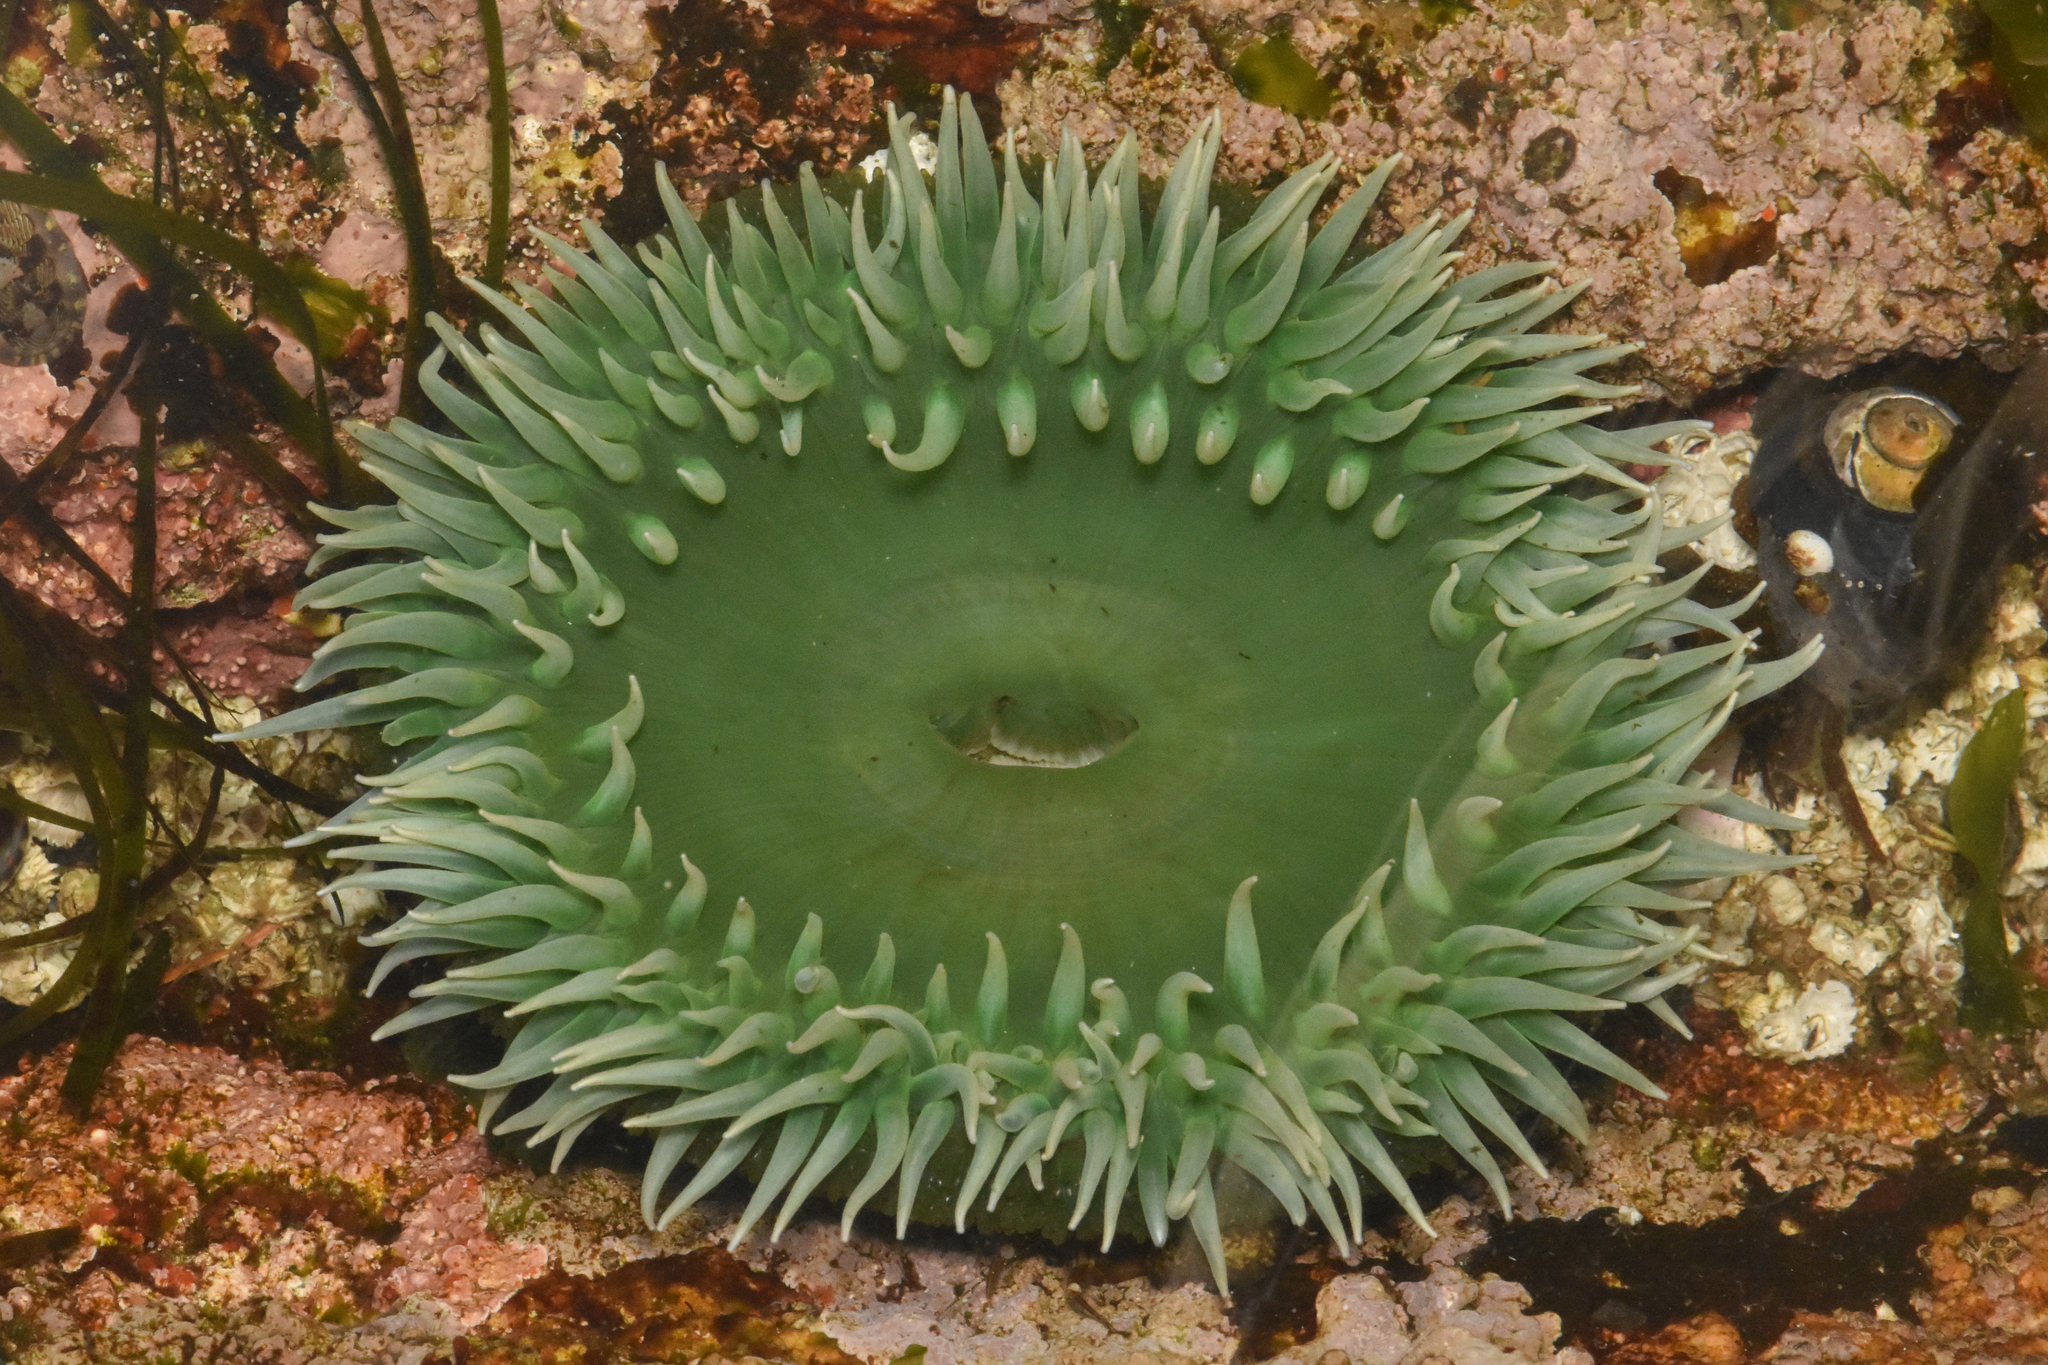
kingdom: Animalia
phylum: Cnidaria
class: Anthozoa
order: Actiniaria
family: Actiniidae
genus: Anthopleura
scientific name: Anthopleura xanthogrammica
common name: Giant green anemone
